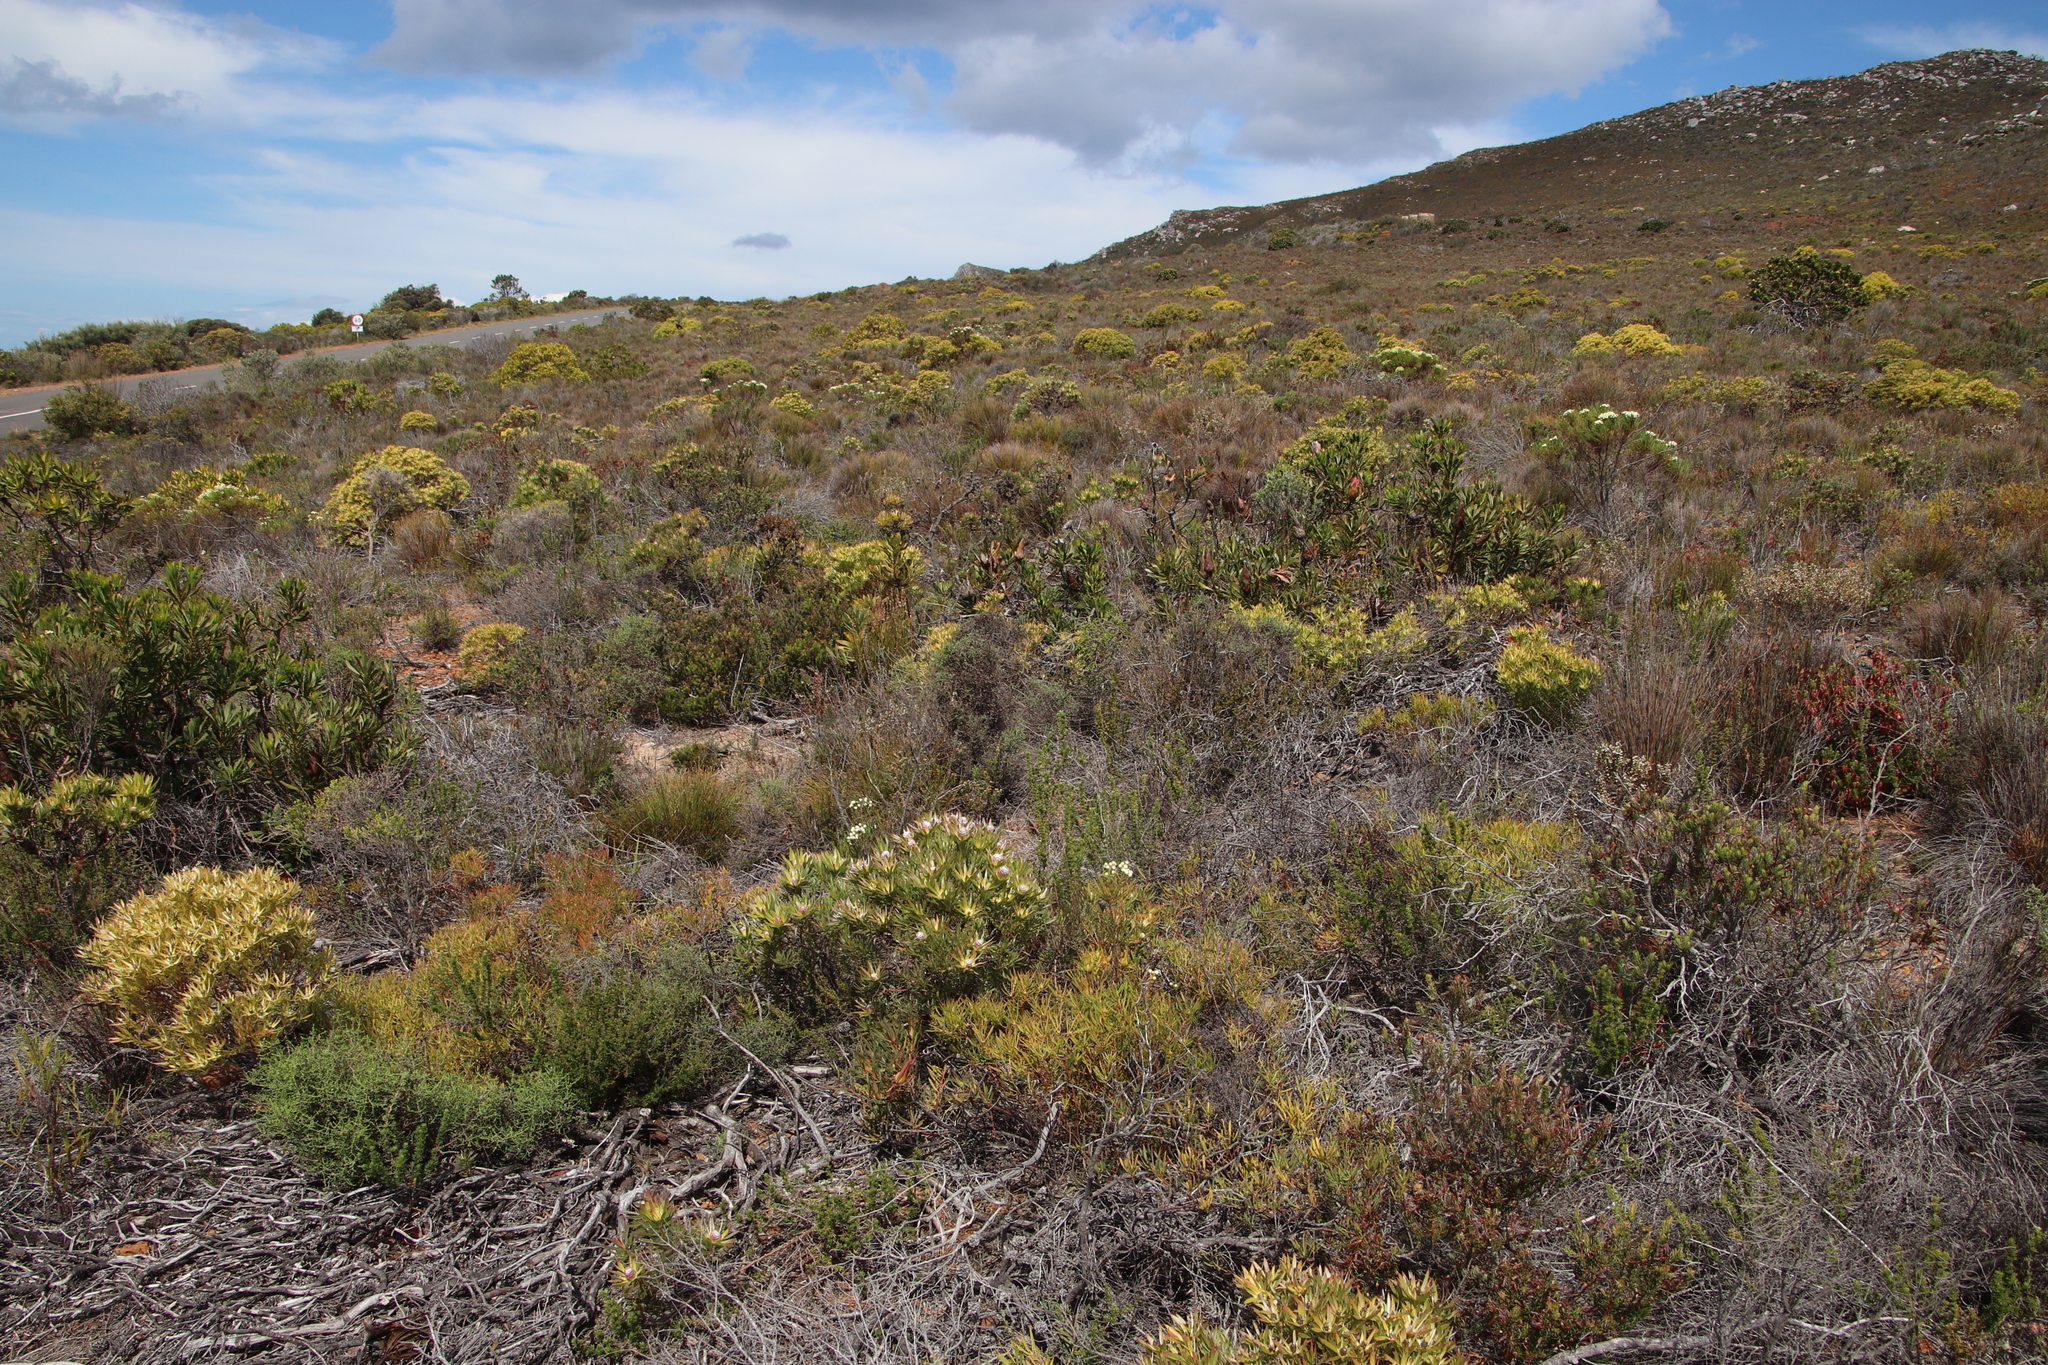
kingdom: Plantae
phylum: Tracheophyta
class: Magnoliopsida
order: Proteales
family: Proteaceae
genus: Leucadendron
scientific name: Leucadendron xanthoconus
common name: Sickle-leaf conebush
